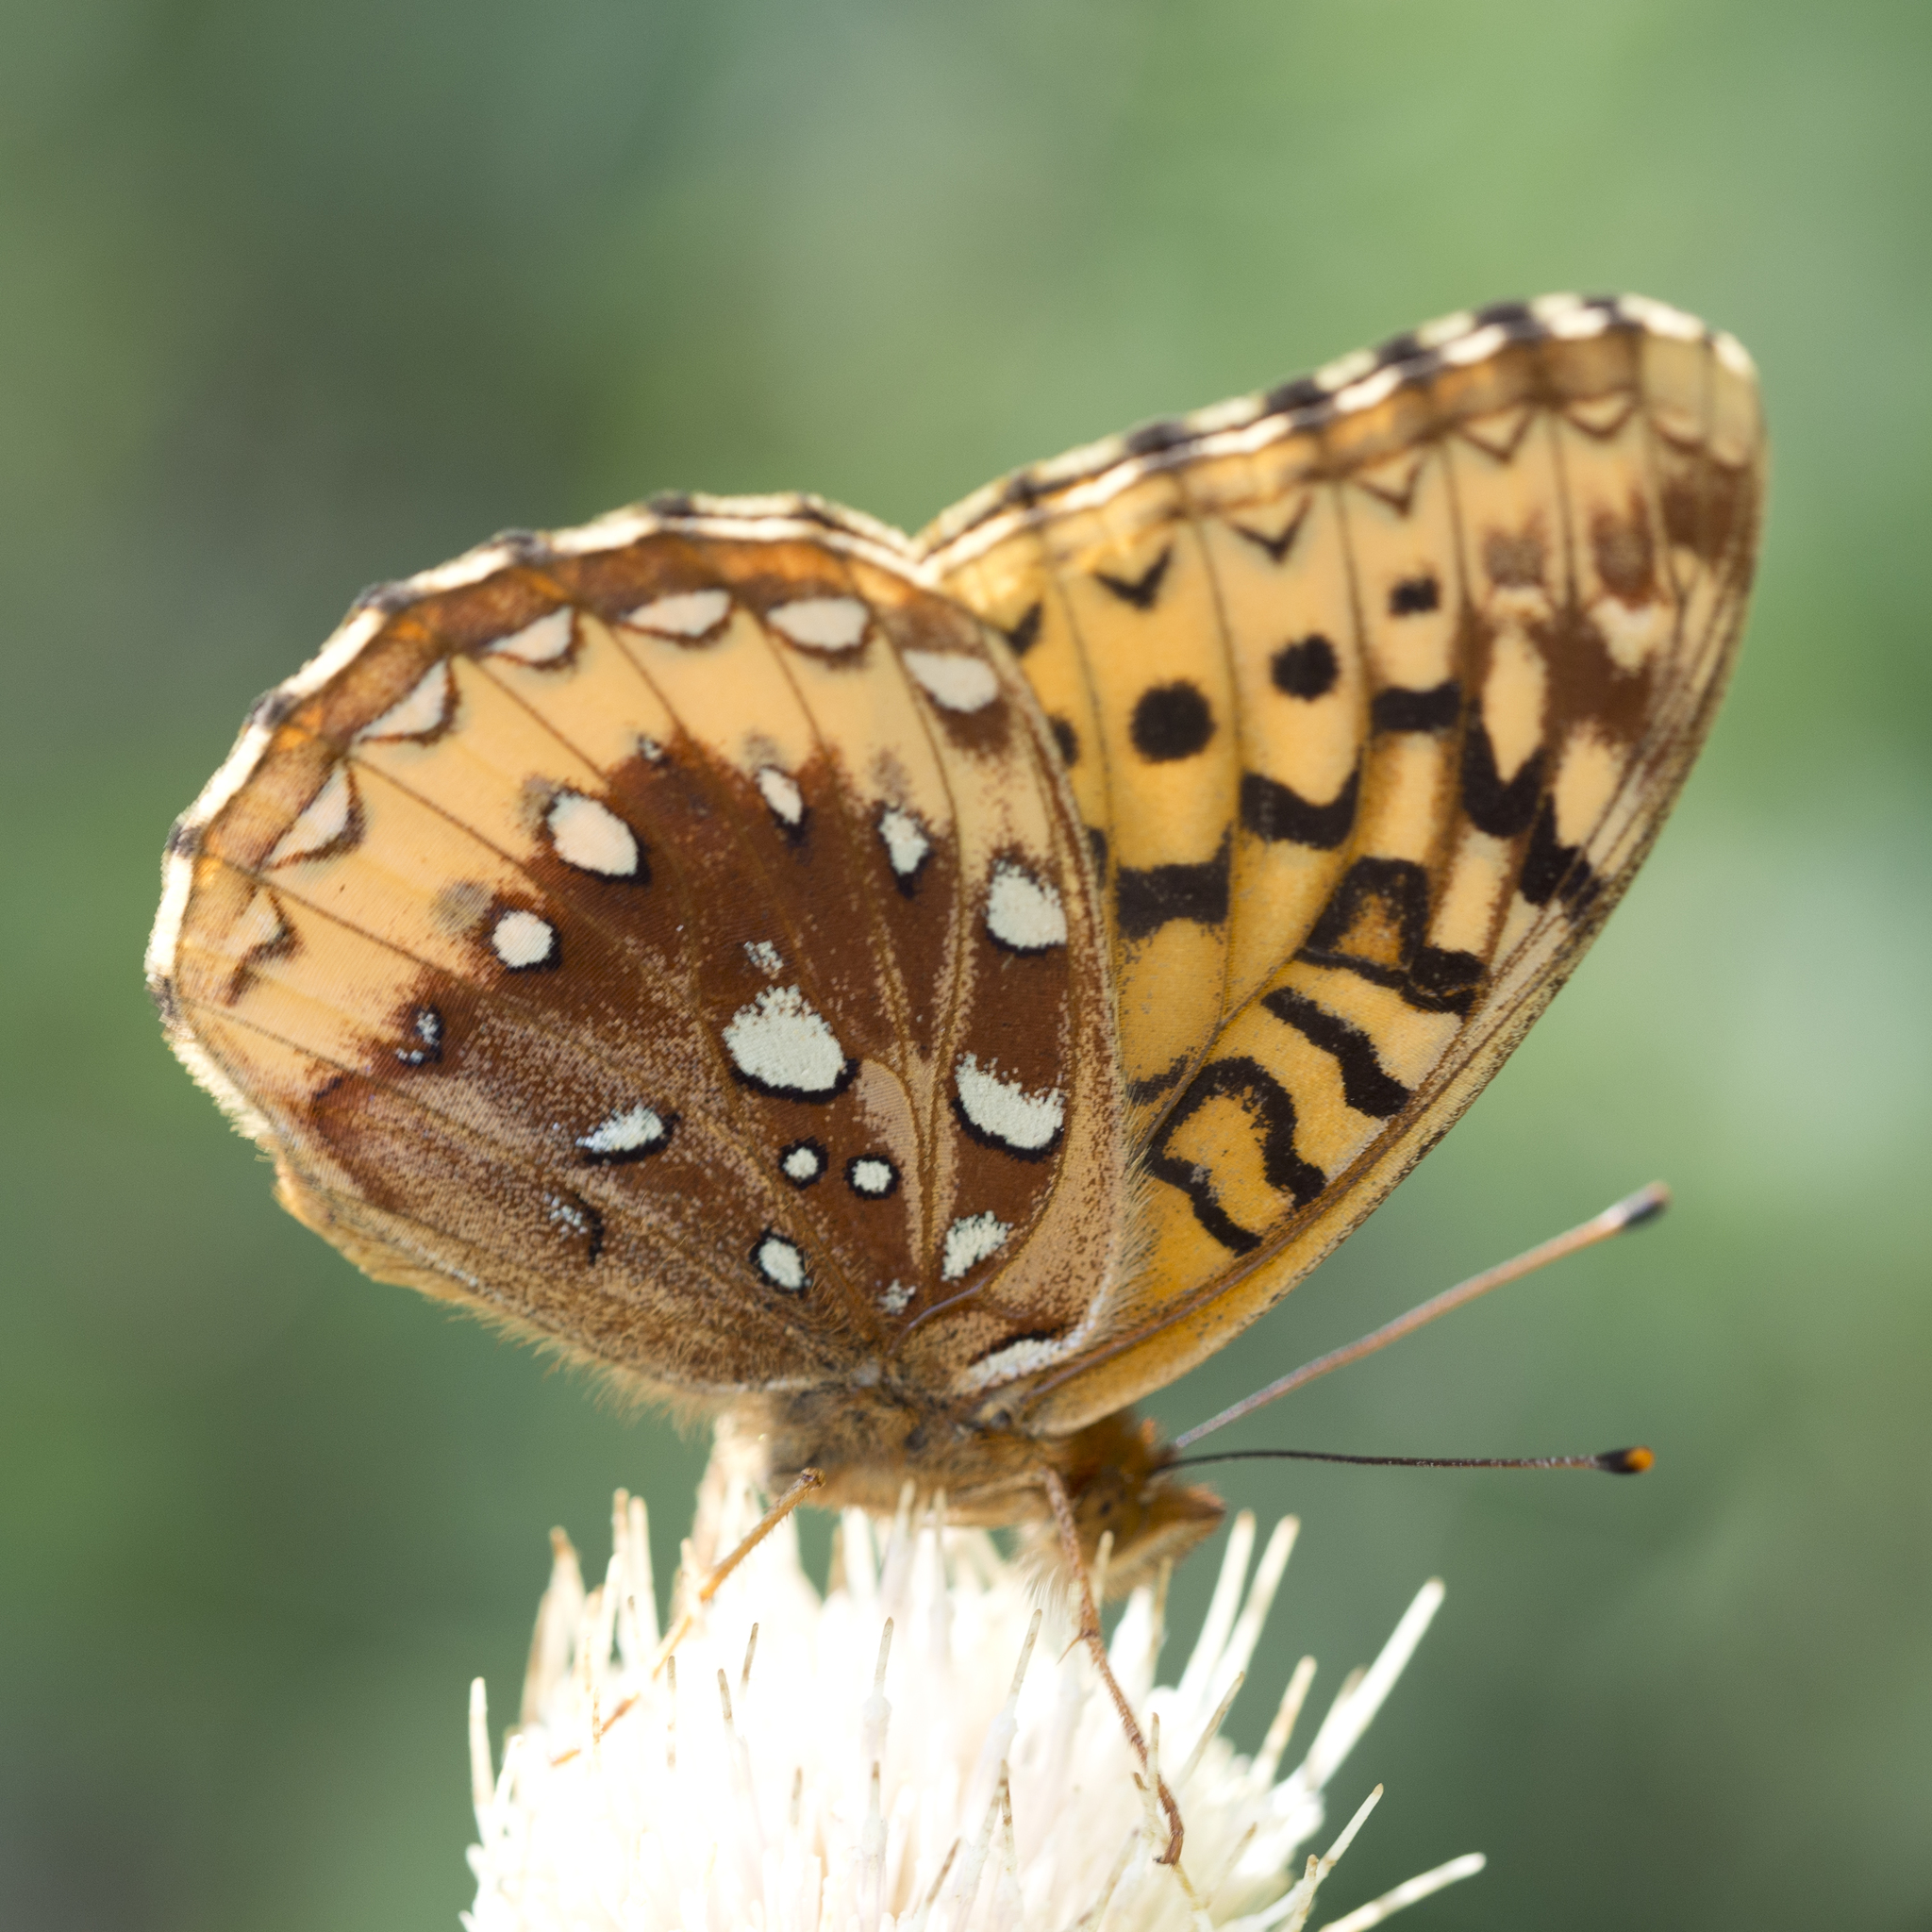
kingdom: Animalia
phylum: Arthropoda
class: Insecta
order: Lepidoptera
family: Nymphalidae
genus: Speyeria
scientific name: Speyeria cybele
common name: Great spangled fritillary
